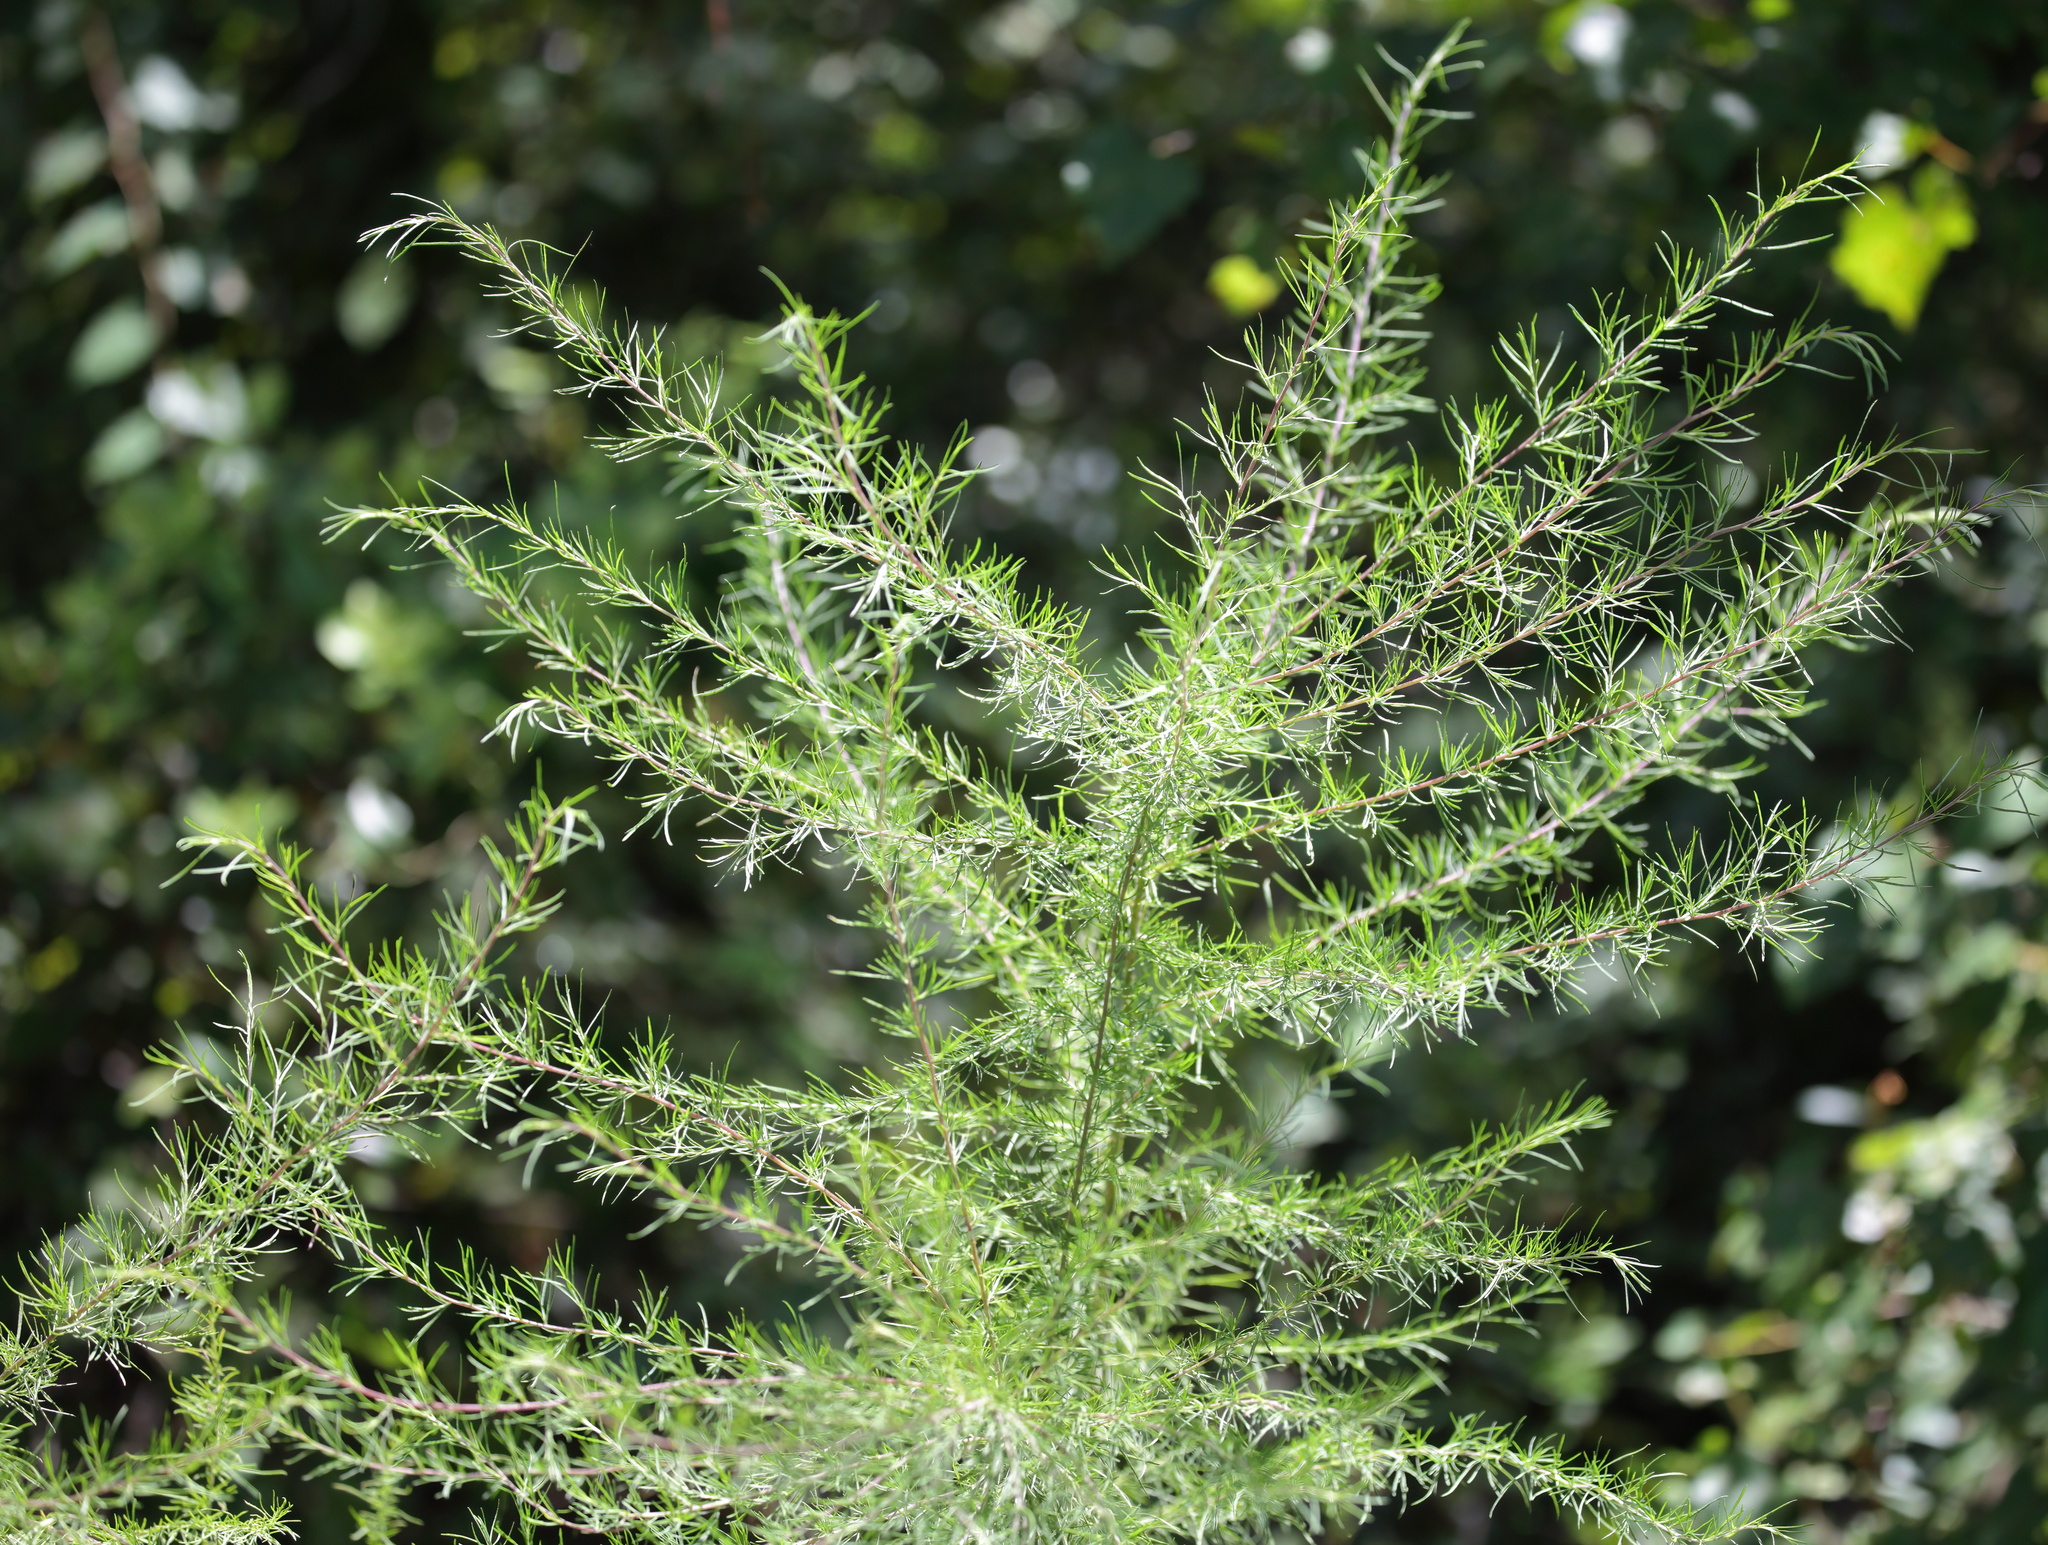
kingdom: Plantae
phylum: Tracheophyta
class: Magnoliopsida
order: Asterales
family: Asteraceae
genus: Eupatorium
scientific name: Eupatorium compositifolium
